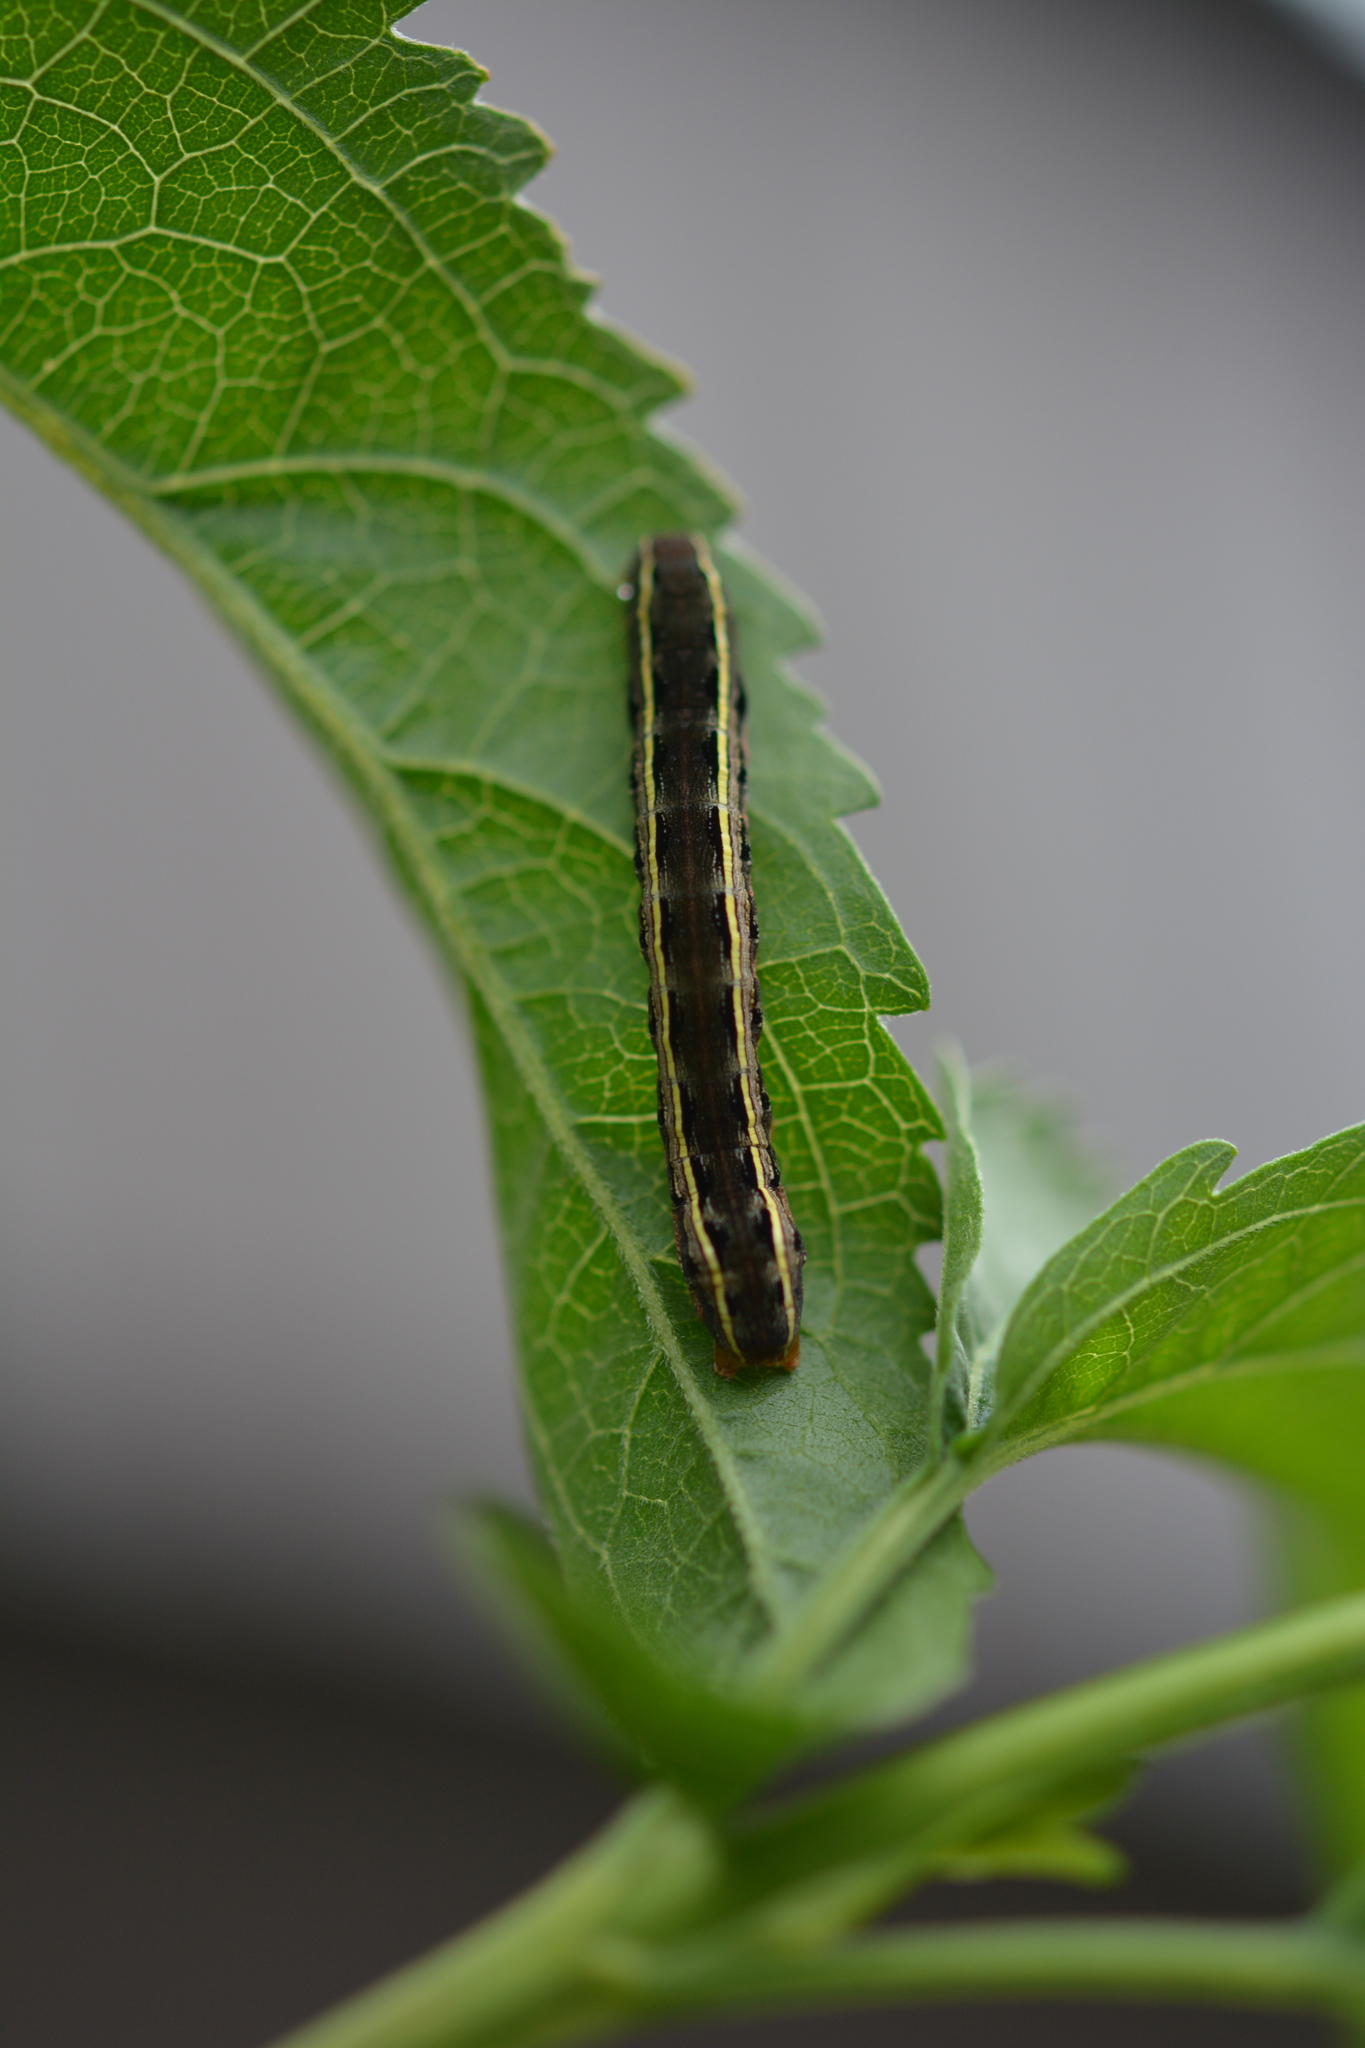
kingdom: Animalia
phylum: Arthropoda
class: Insecta
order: Lepidoptera
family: Noctuidae
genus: Spodoptera
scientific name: Spodoptera ornithogalli
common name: Yellow-striped armyworm
